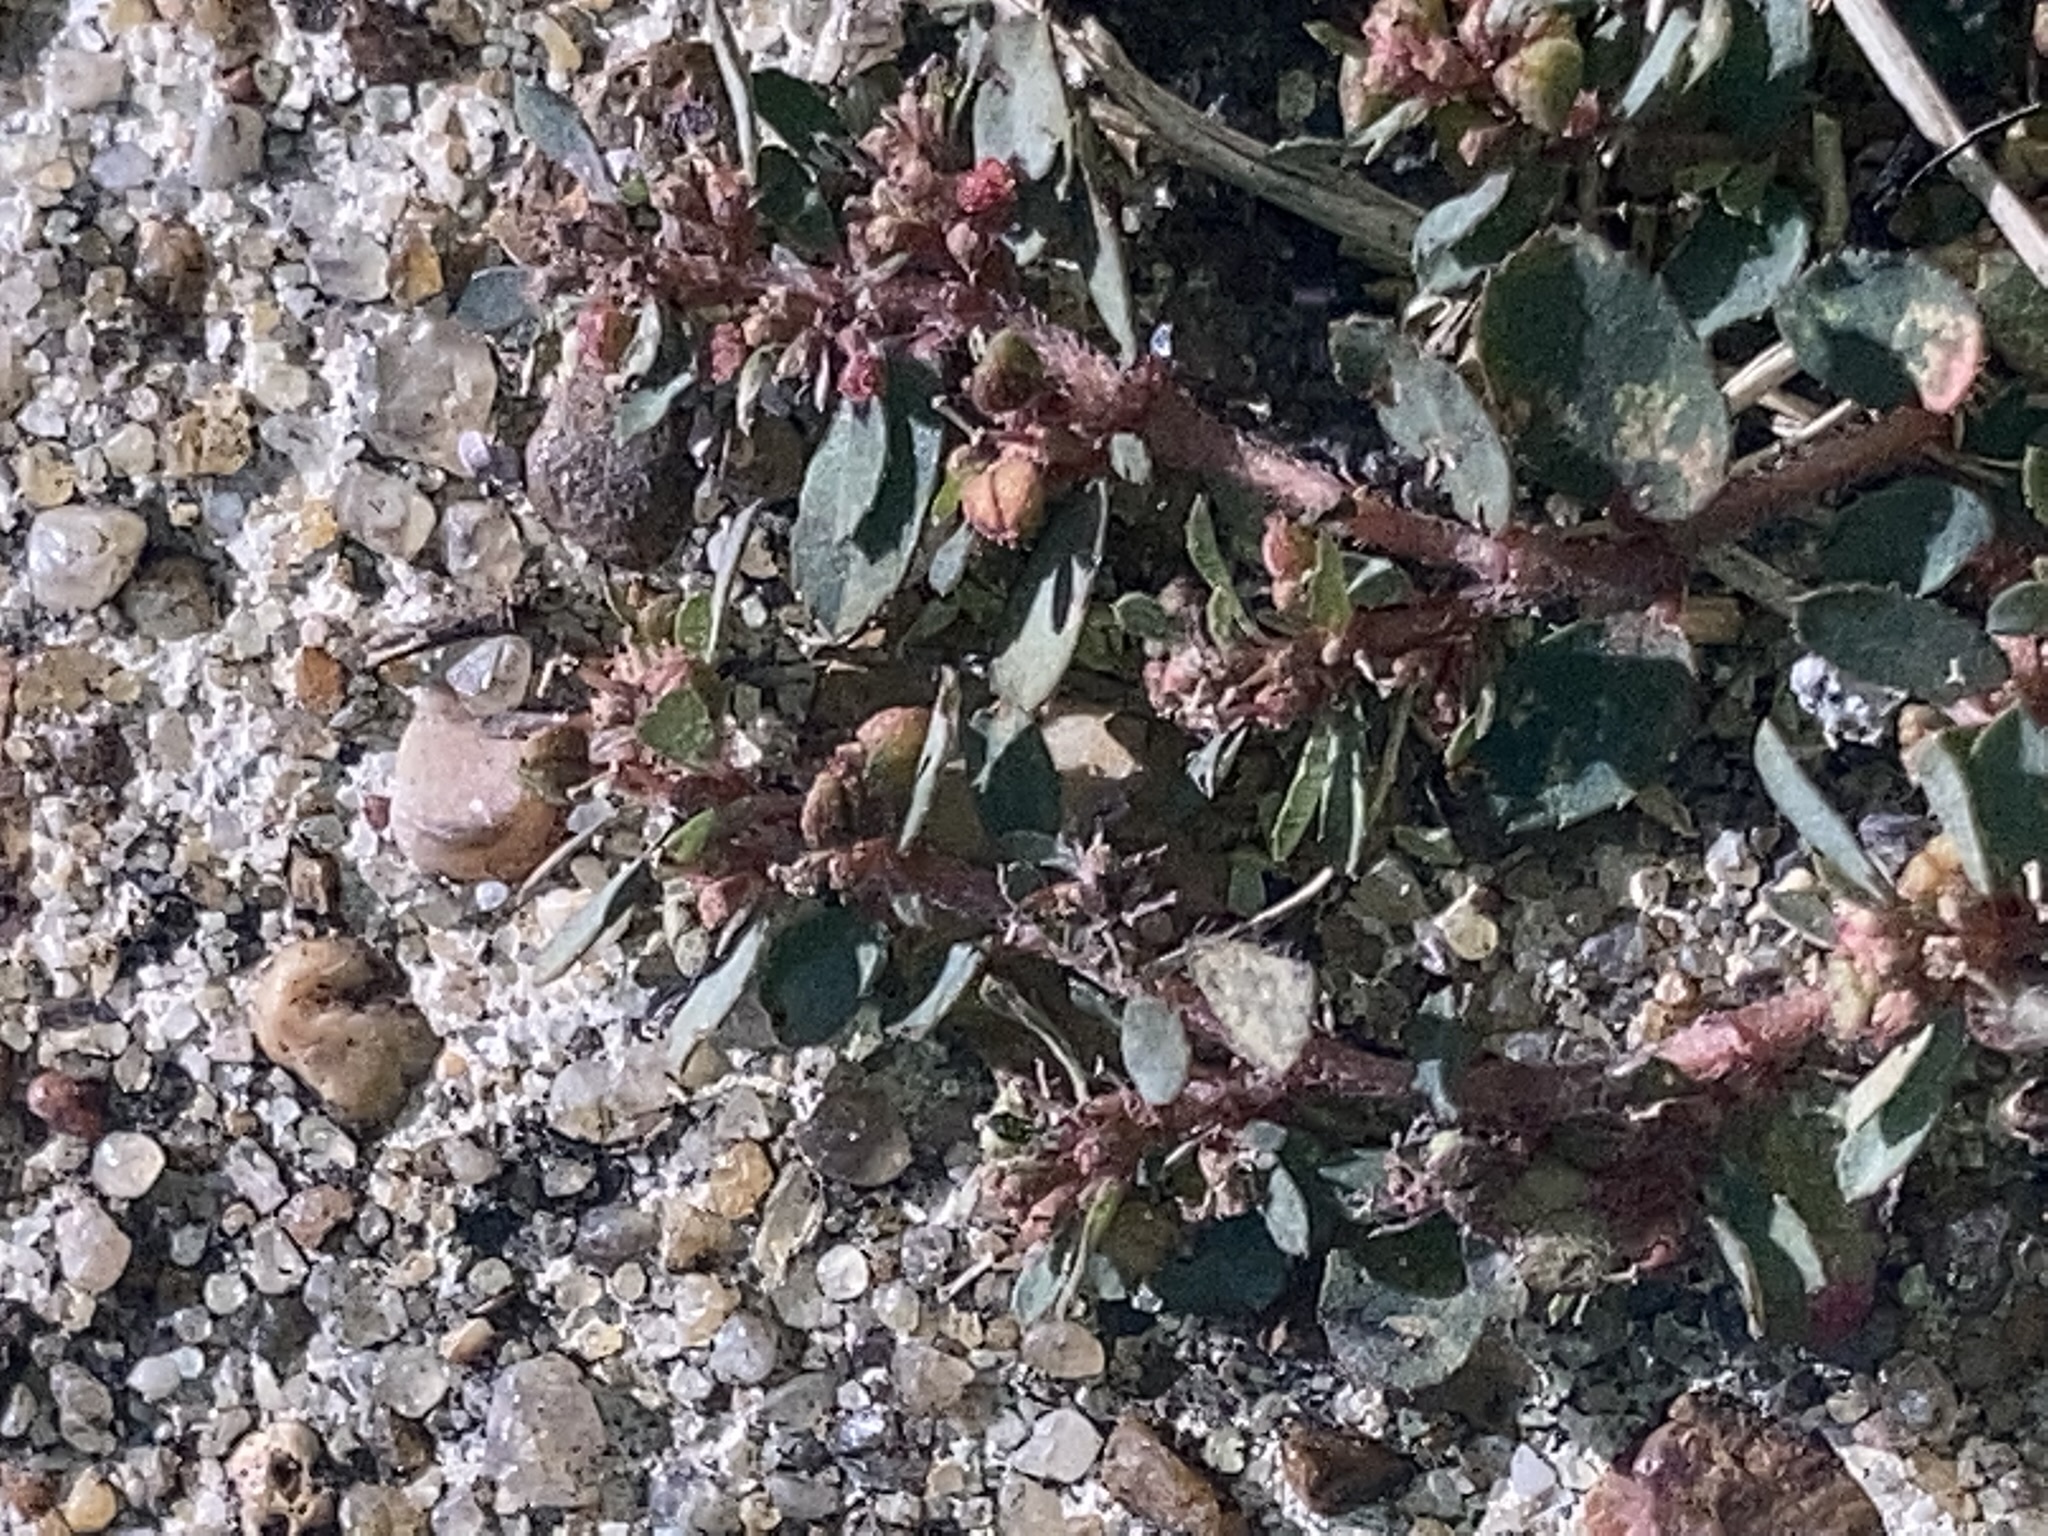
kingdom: Plantae
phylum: Tracheophyta
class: Magnoliopsida
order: Malpighiales
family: Euphorbiaceae
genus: Euphorbia
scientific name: Euphorbia maculata
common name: Spotted spurge
